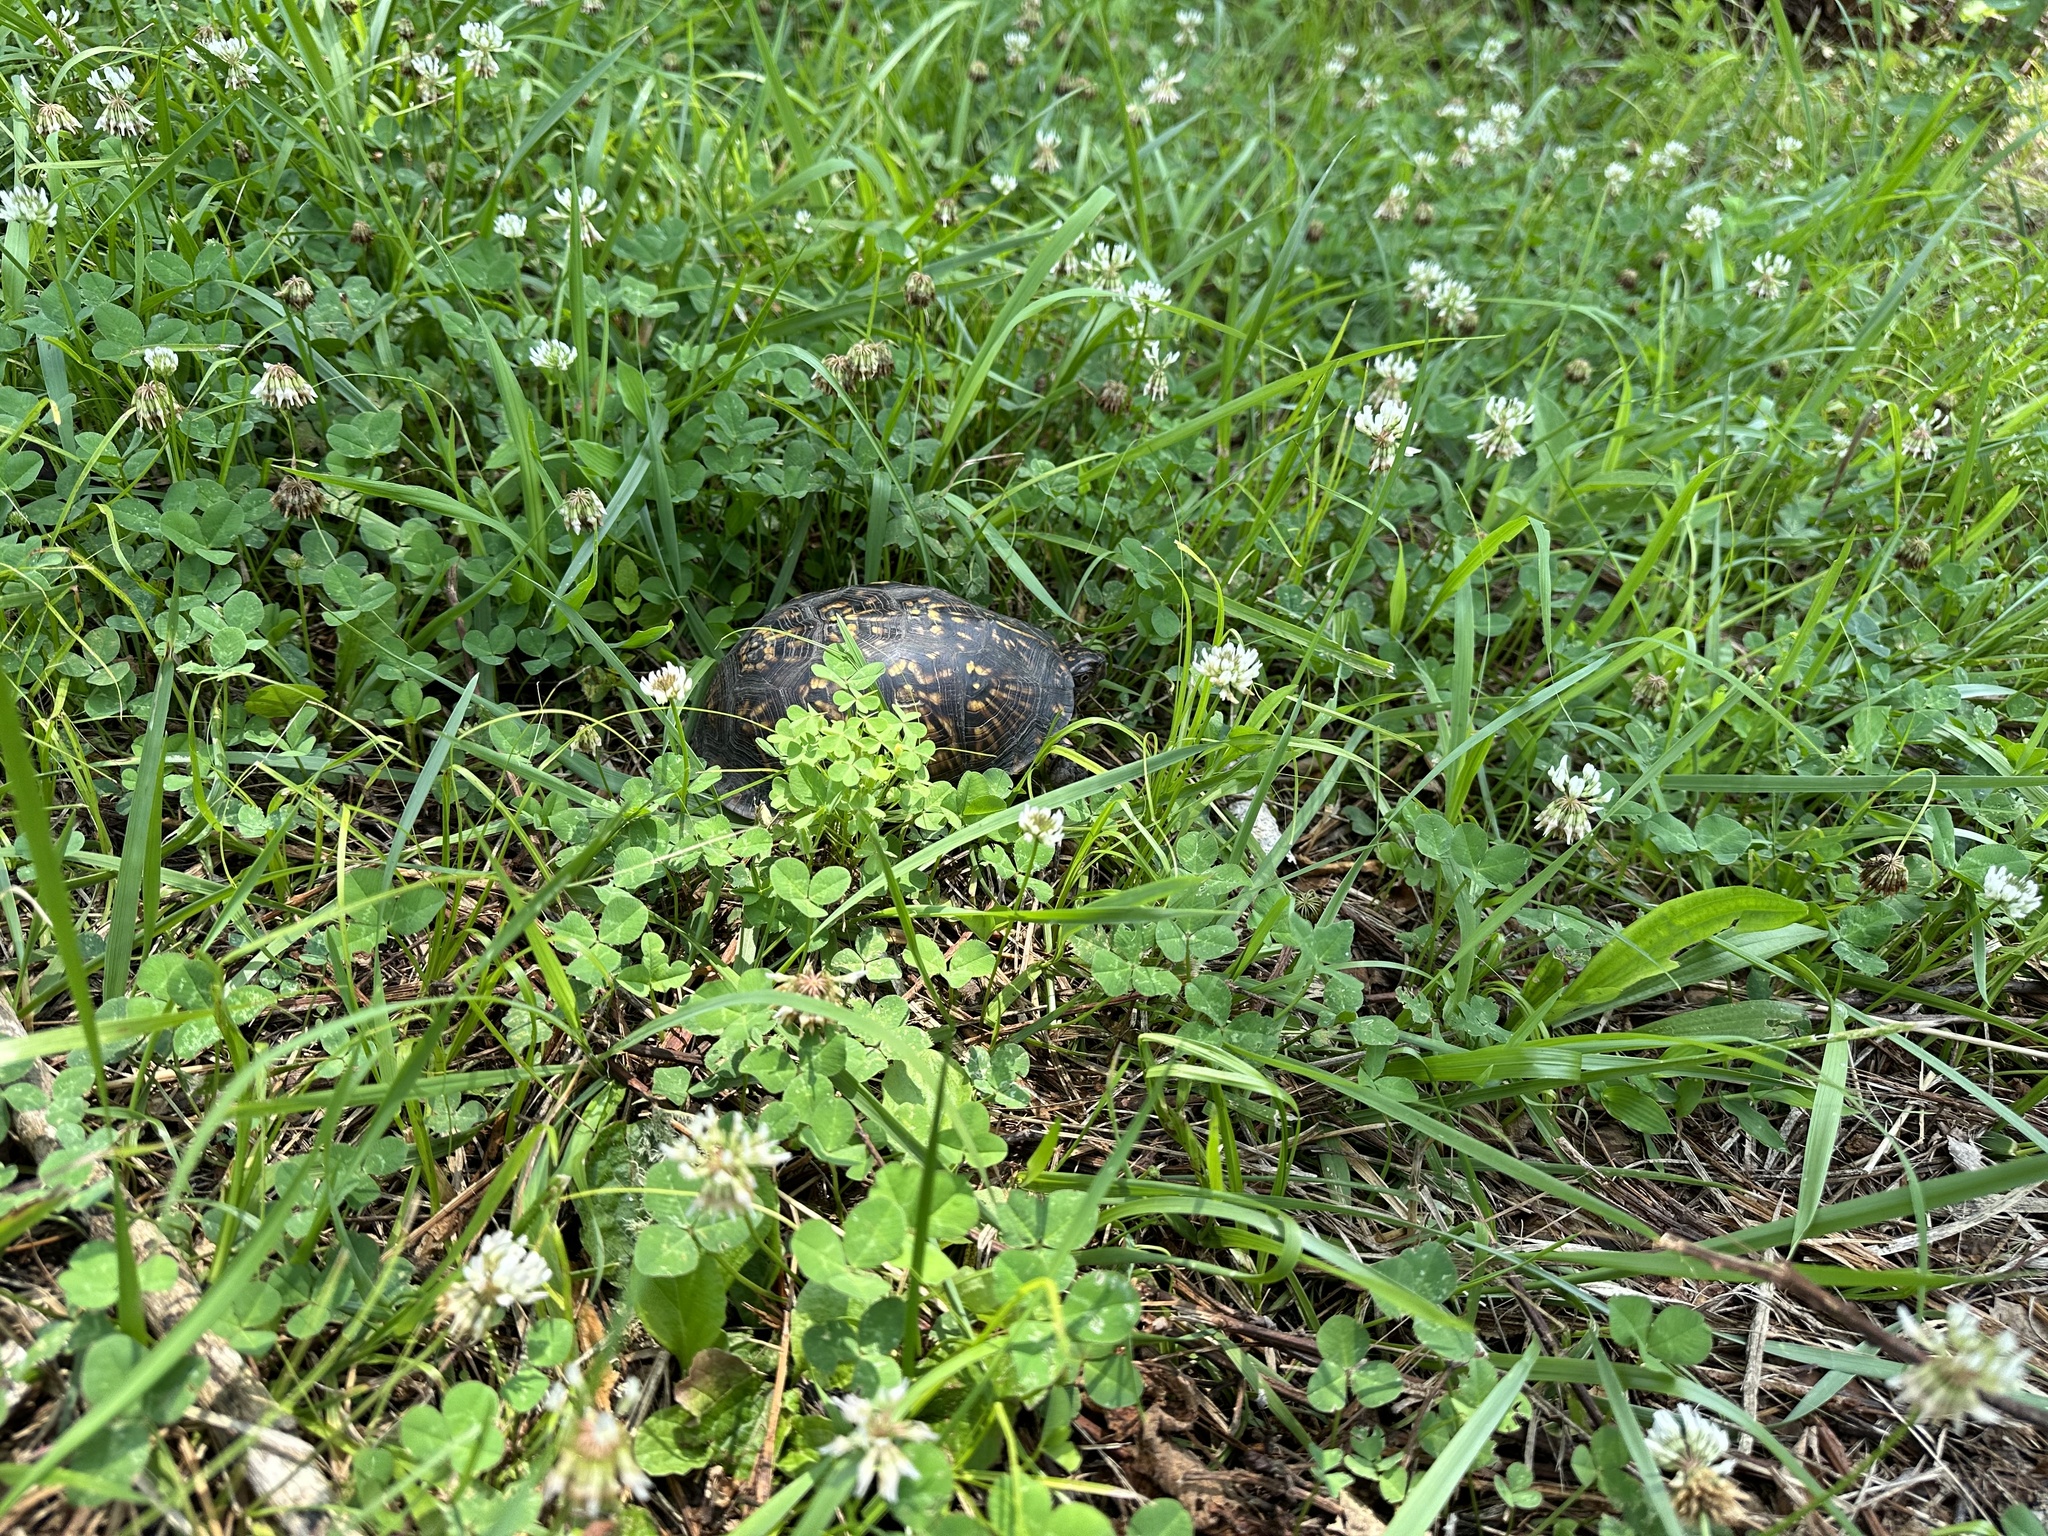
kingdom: Animalia
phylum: Chordata
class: Testudines
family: Emydidae
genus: Terrapene
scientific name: Terrapene carolina
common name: Common box turtle
